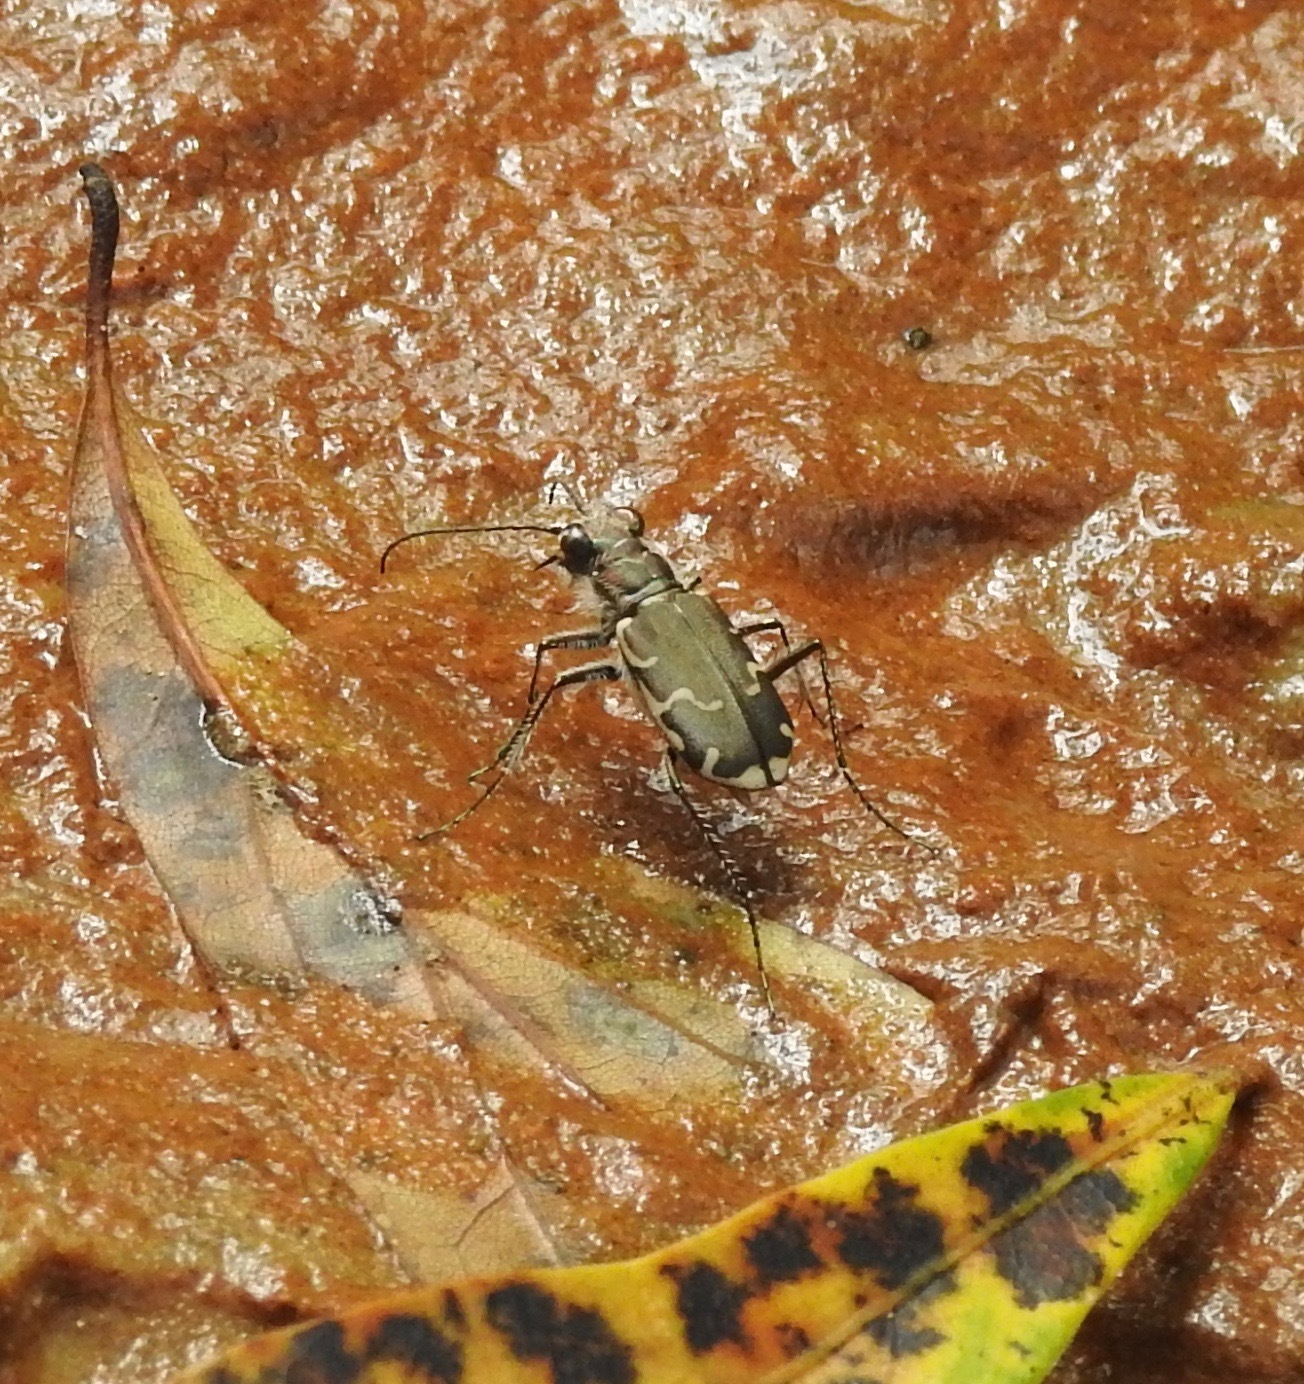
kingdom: Animalia
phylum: Arthropoda
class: Insecta
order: Coleoptera
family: Carabidae
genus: Cicindela
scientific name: Cicindela repanda
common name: Bronzed tiger beetle
